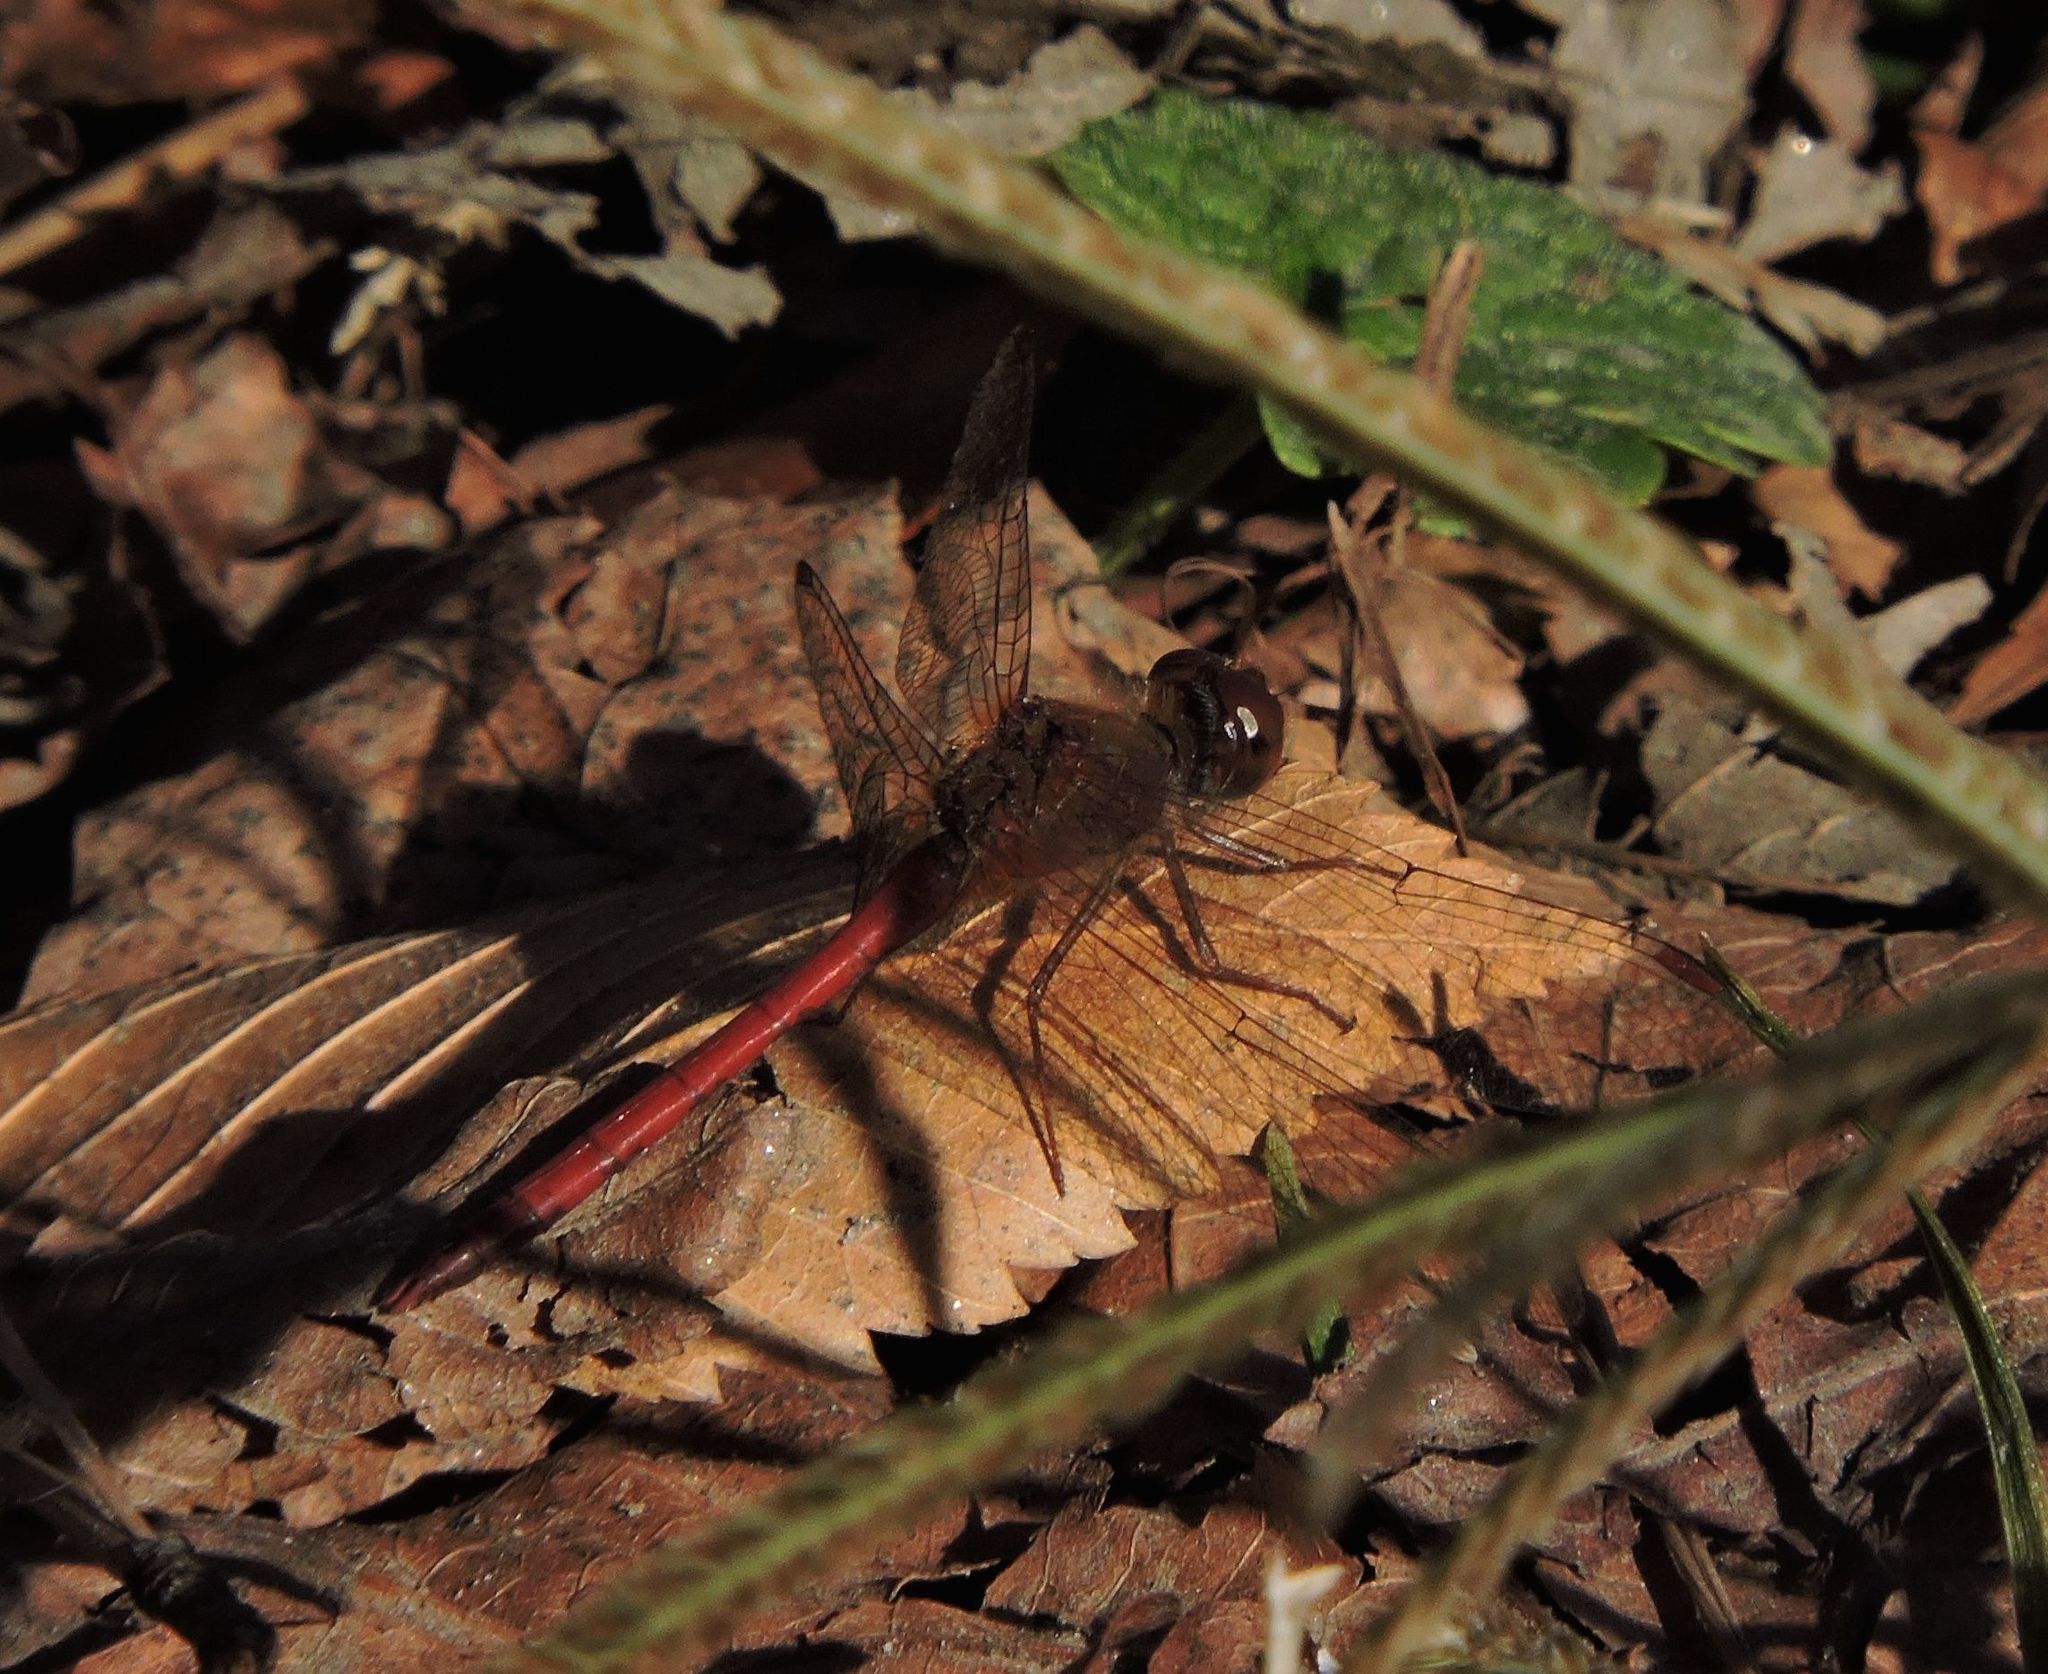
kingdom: Animalia
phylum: Arthropoda
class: Insecta
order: Odonata
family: Libellulidae
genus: Sympetrum
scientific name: Sympetrum vicinum
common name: Autumn meadowhawk
